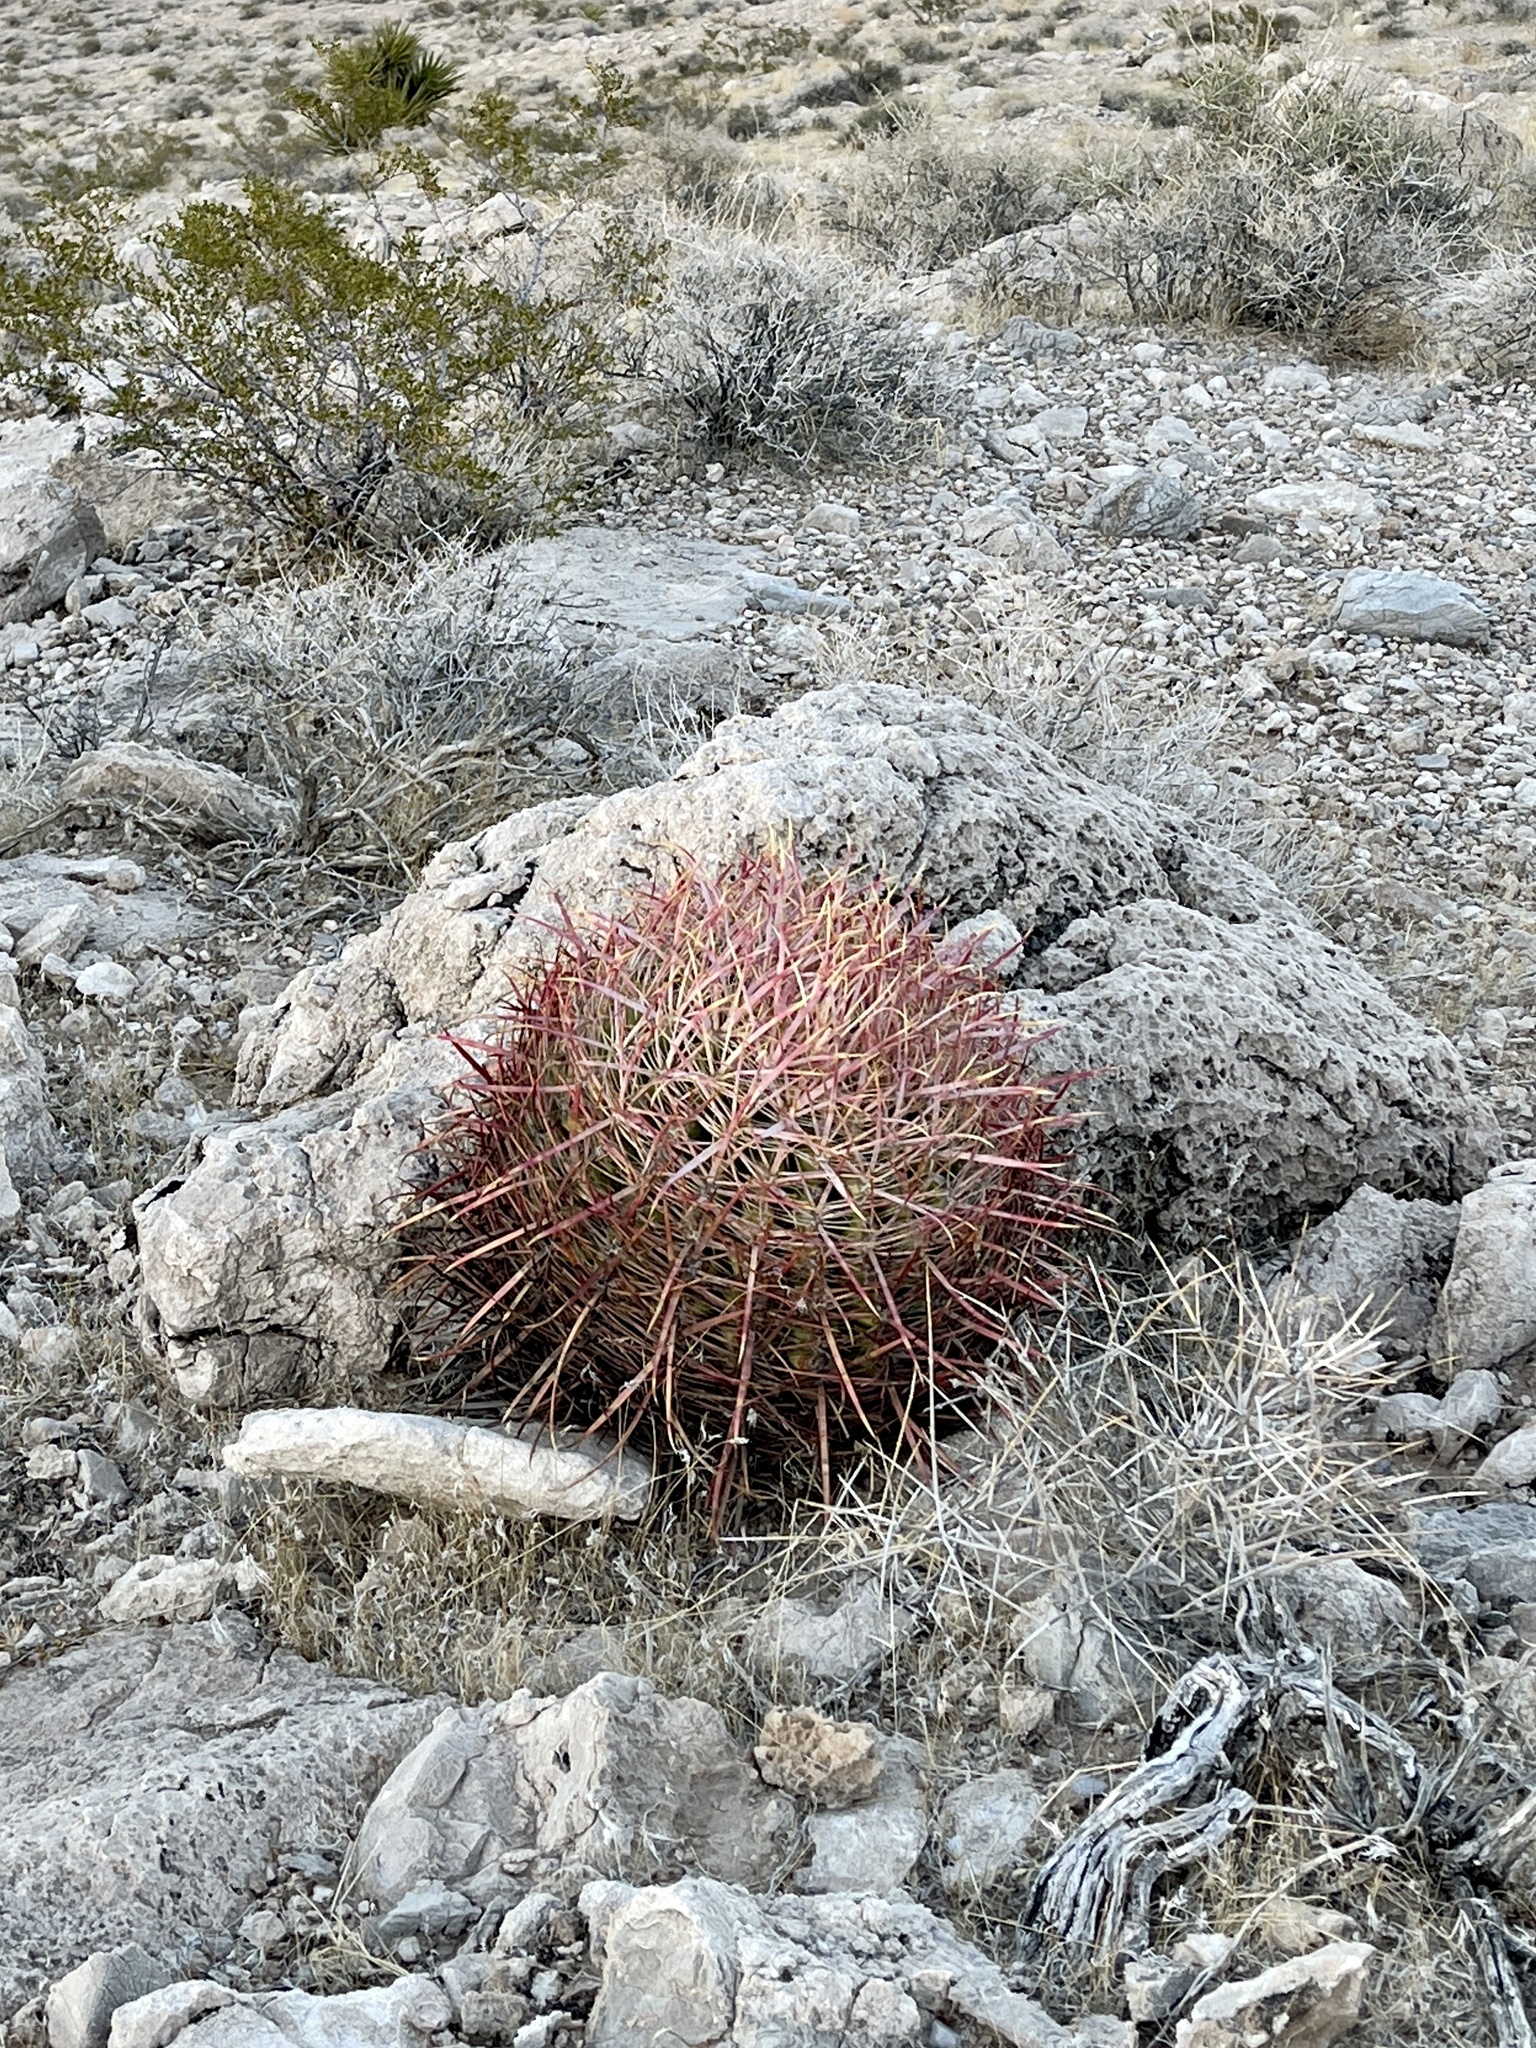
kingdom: Plantae
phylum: Tracheophyta
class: Magnoliopsida
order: Caryophyllales
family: Cactaceae
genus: Ferocactus
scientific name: Ferocactus cylindraceus
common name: California barrel cactus
